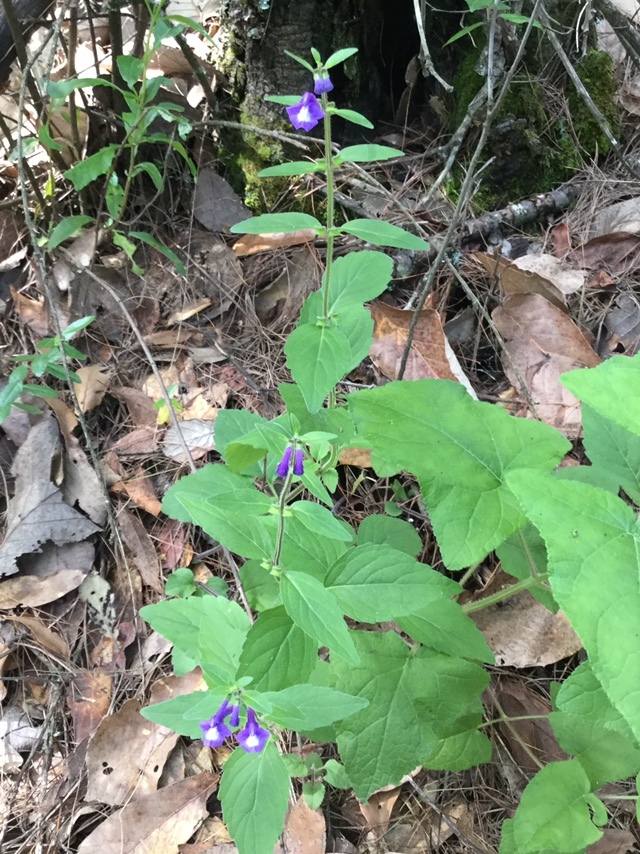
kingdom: Plantae
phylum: Tracheophyta
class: Magnoliopsida
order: Lamiales
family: Lamiaceae
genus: Scutellaria
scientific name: Scutellaria dumetorum
